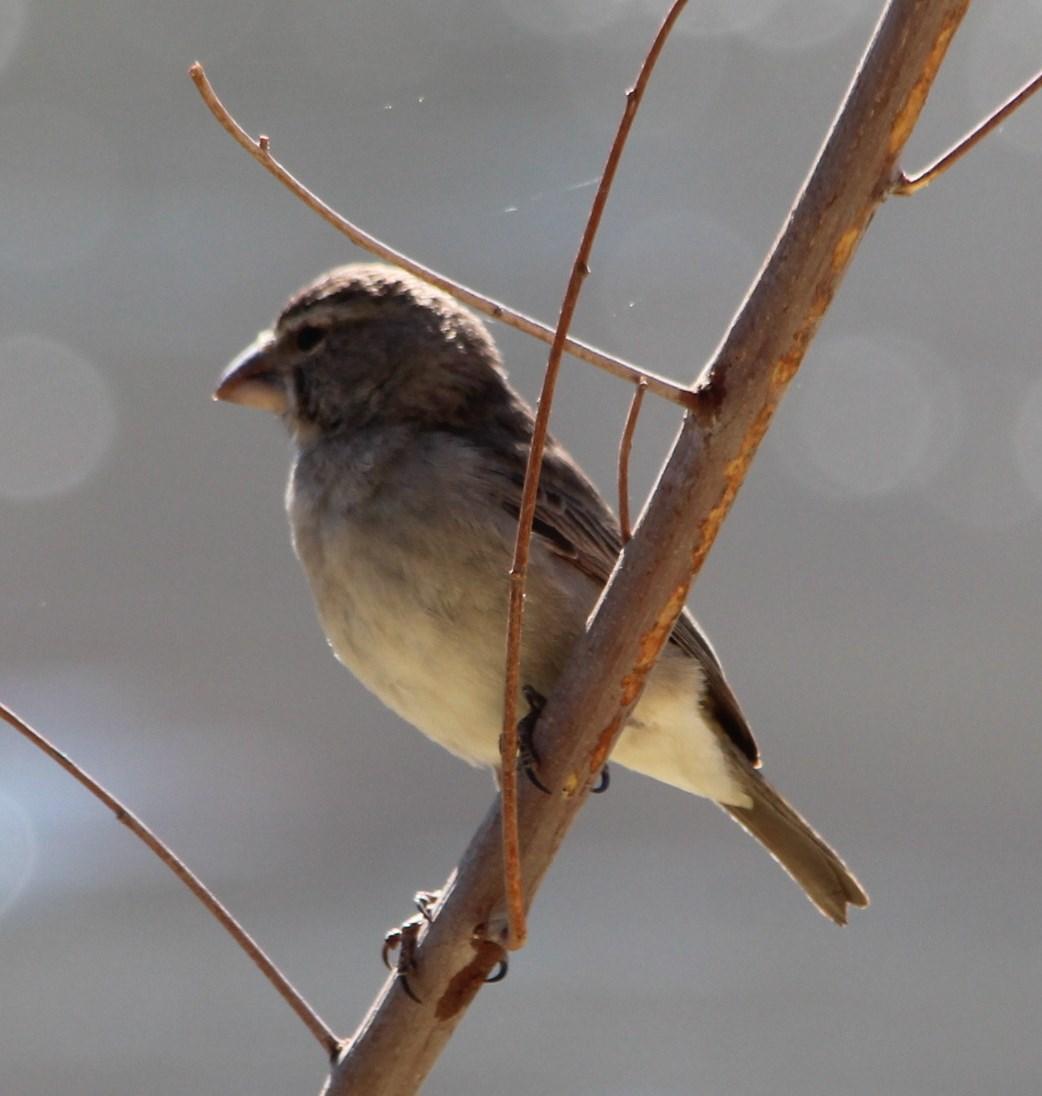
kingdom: Animalia
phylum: Chordata
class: Aves
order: Passeriformes
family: Fringillidae
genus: Crithagra
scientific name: Crithagra albogularis
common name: White-throated canary
